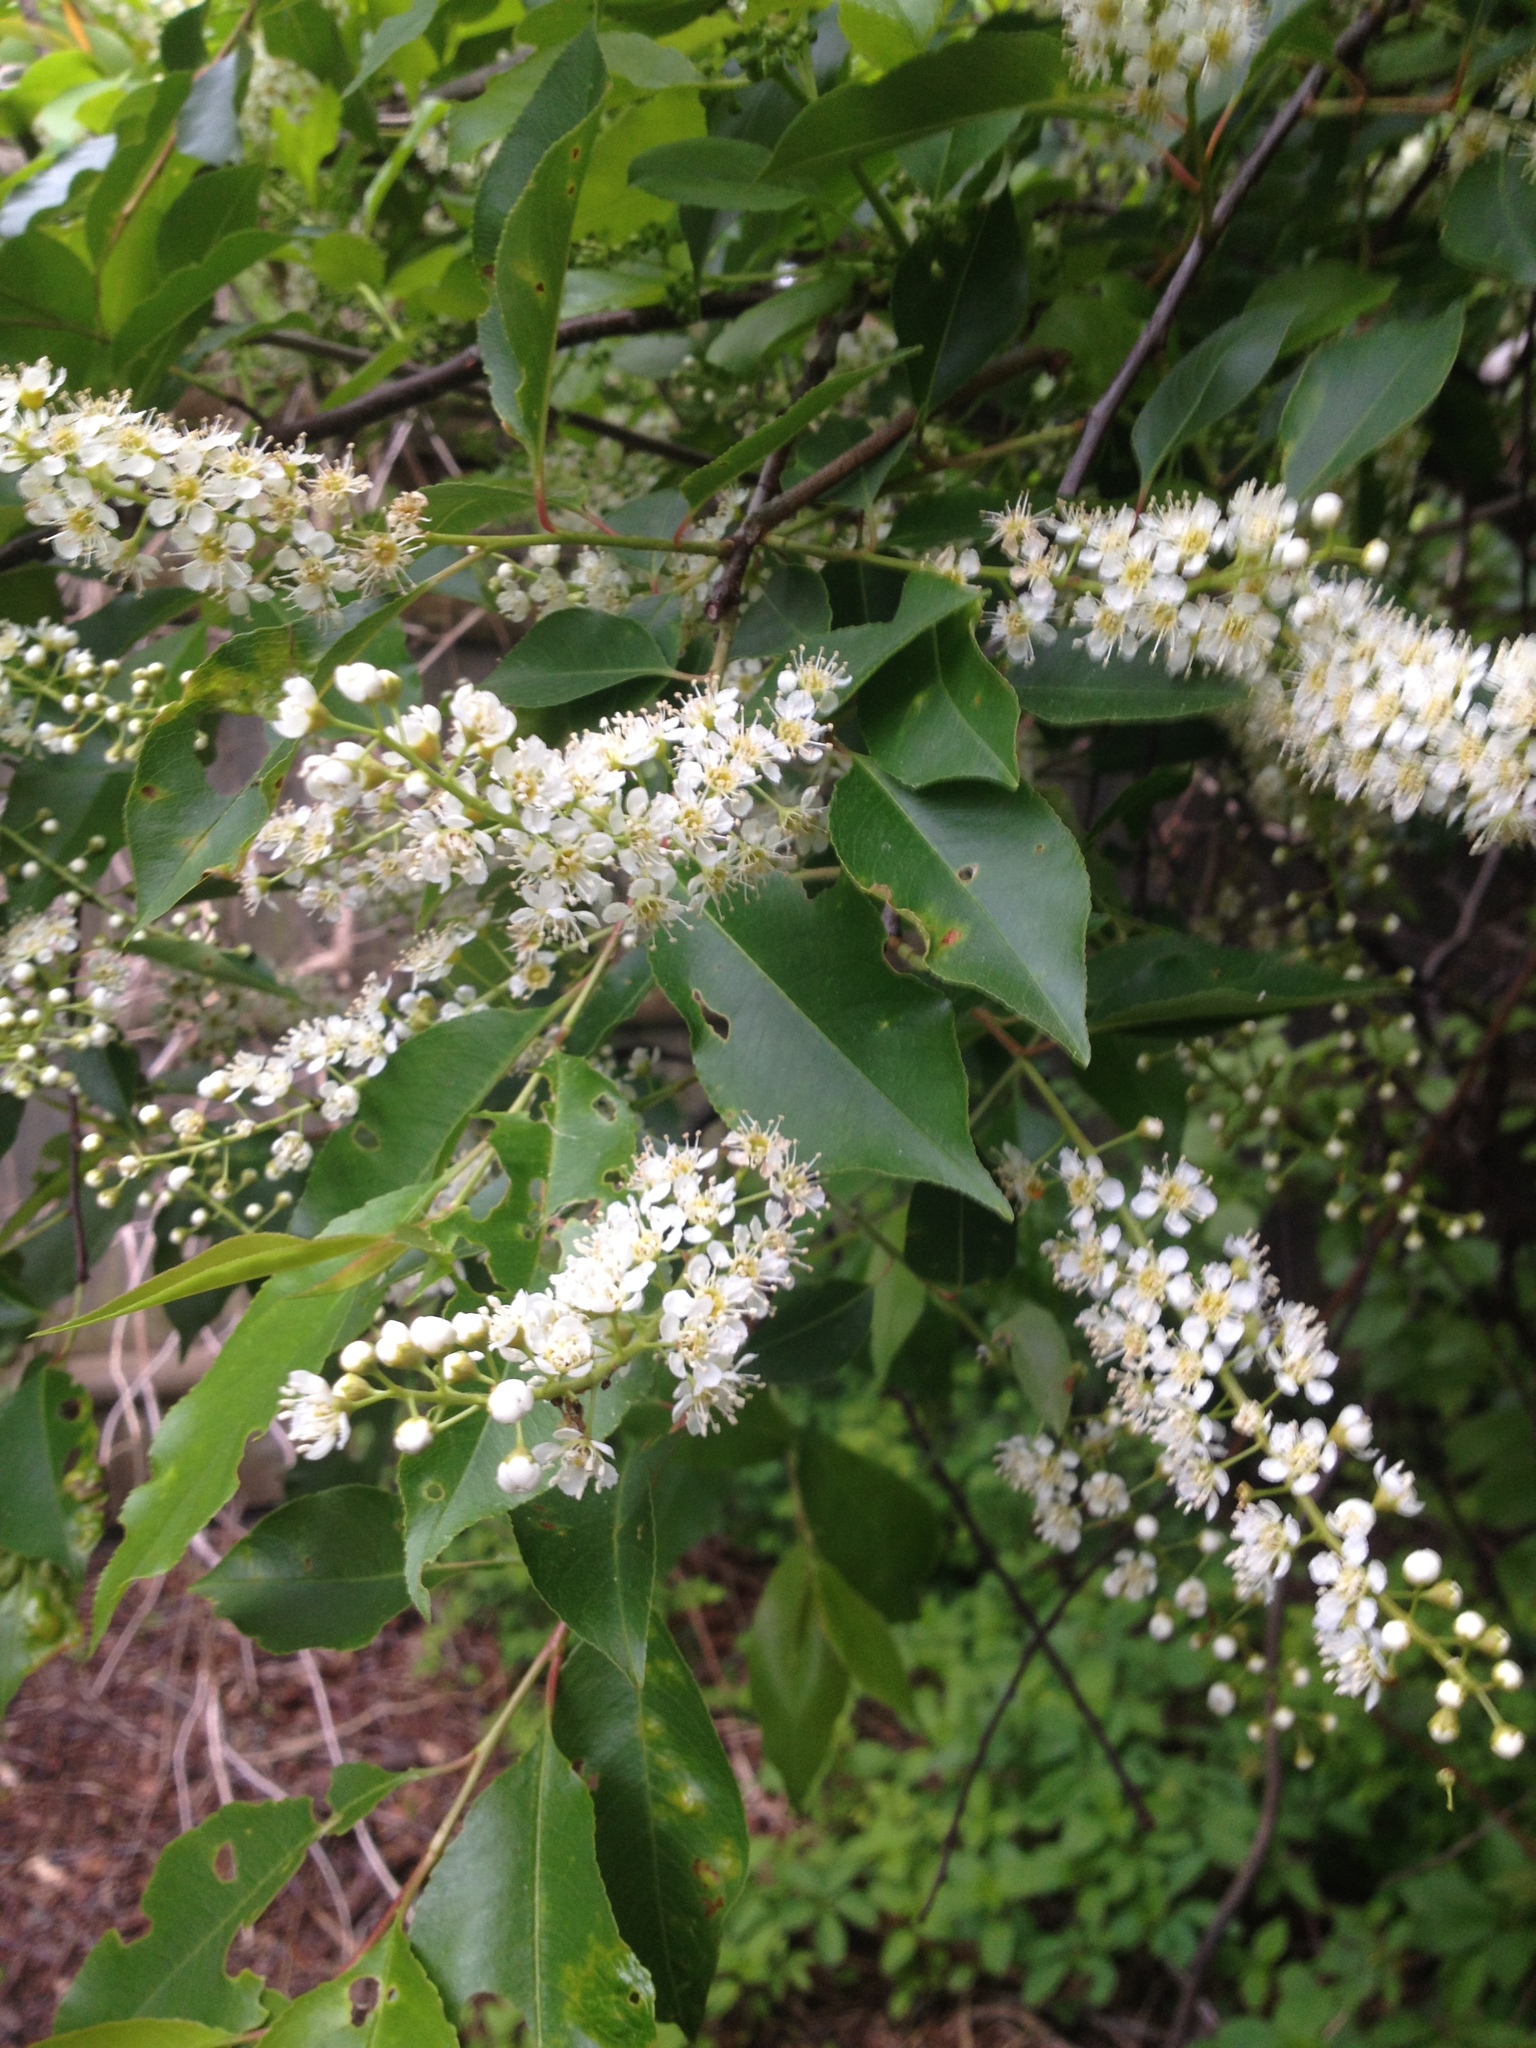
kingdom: Plantae
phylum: Tracheophyta
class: Magnoliopsida
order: Rosales
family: Rosaceae
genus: Prunus
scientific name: Prunus serotina
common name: Black cherry
